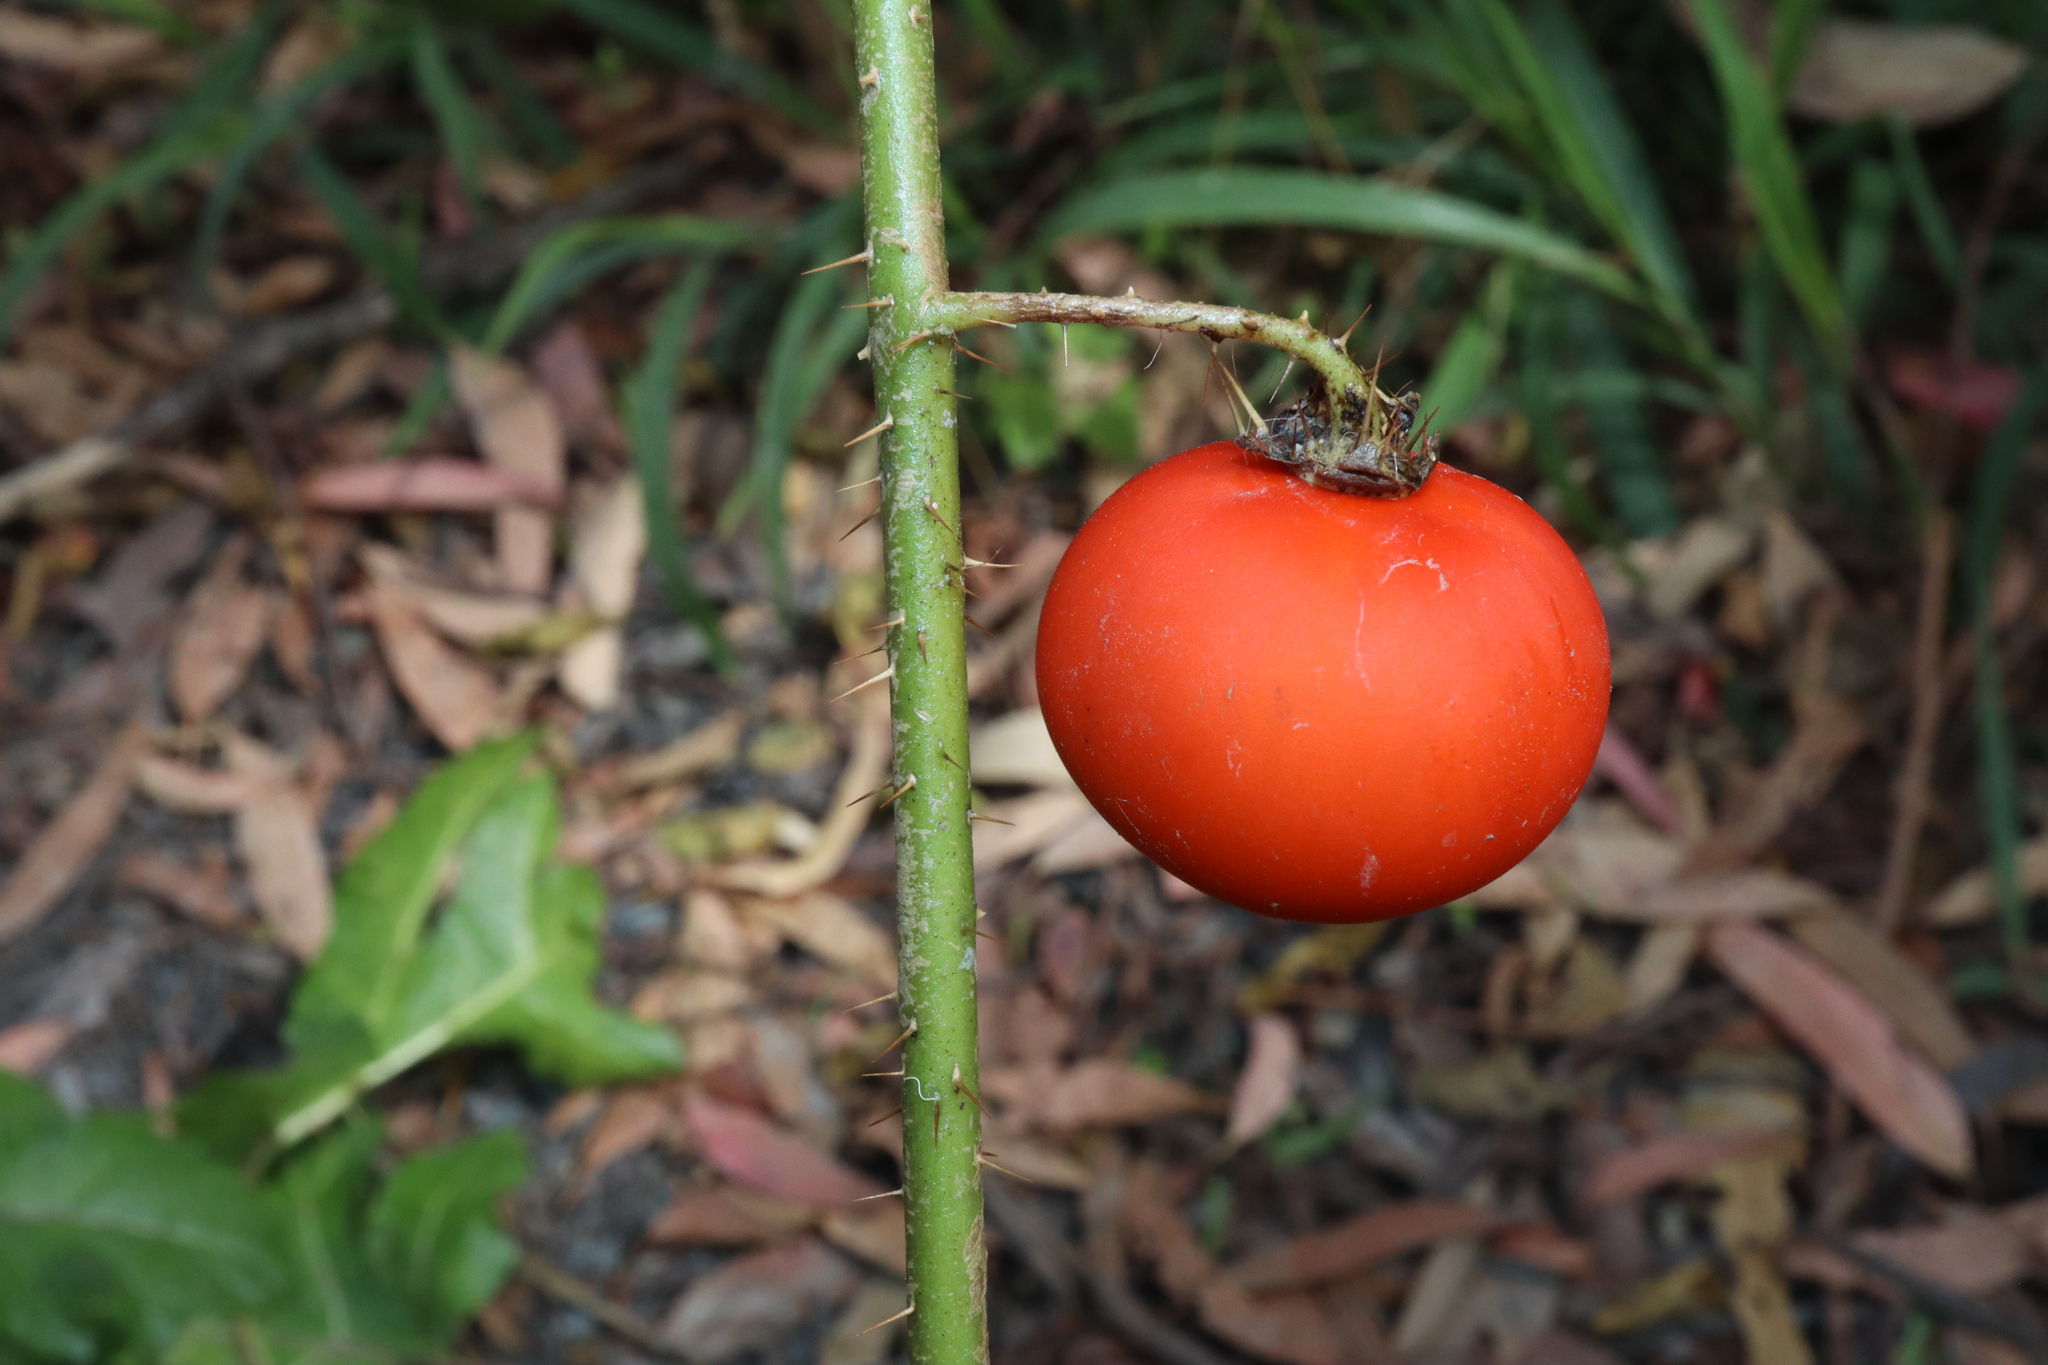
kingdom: Plantae
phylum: Tracheophyta
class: Magnoliopsida
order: Solanales
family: Solanaceae
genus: Solanum
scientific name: Solanum capsicoides
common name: Cockroach berry
